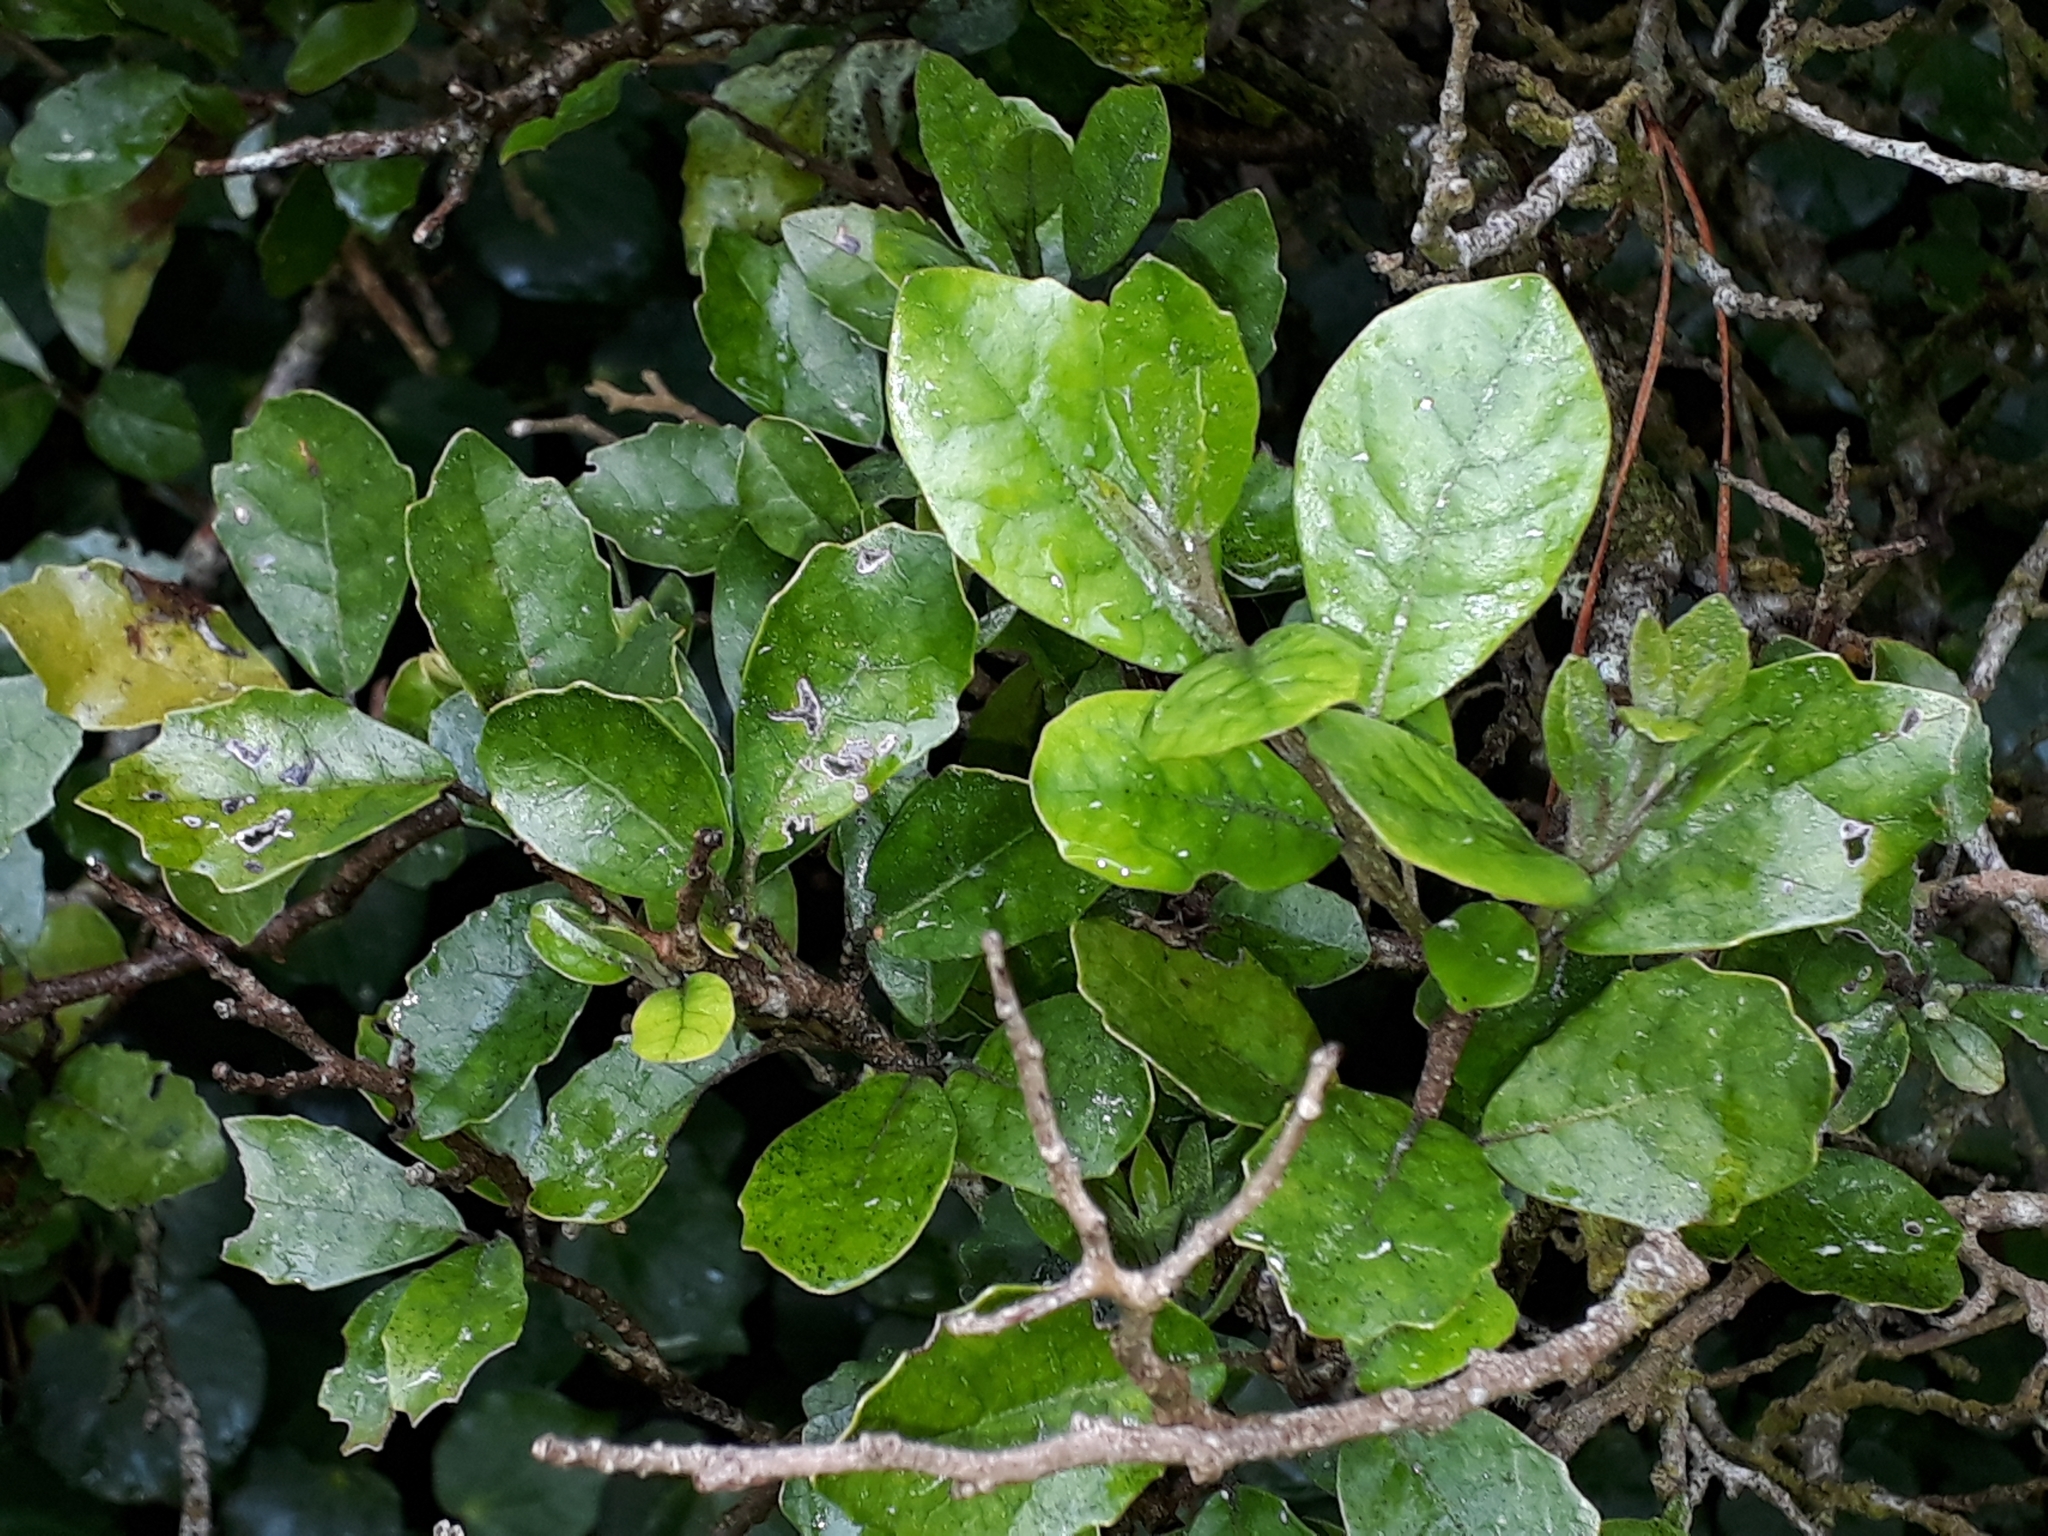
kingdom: Plantae
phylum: Tracheophyta
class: Magnoliopsida
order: Apiales
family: Pennantiaceae
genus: Pennantia
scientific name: Pennantia corymbosa
